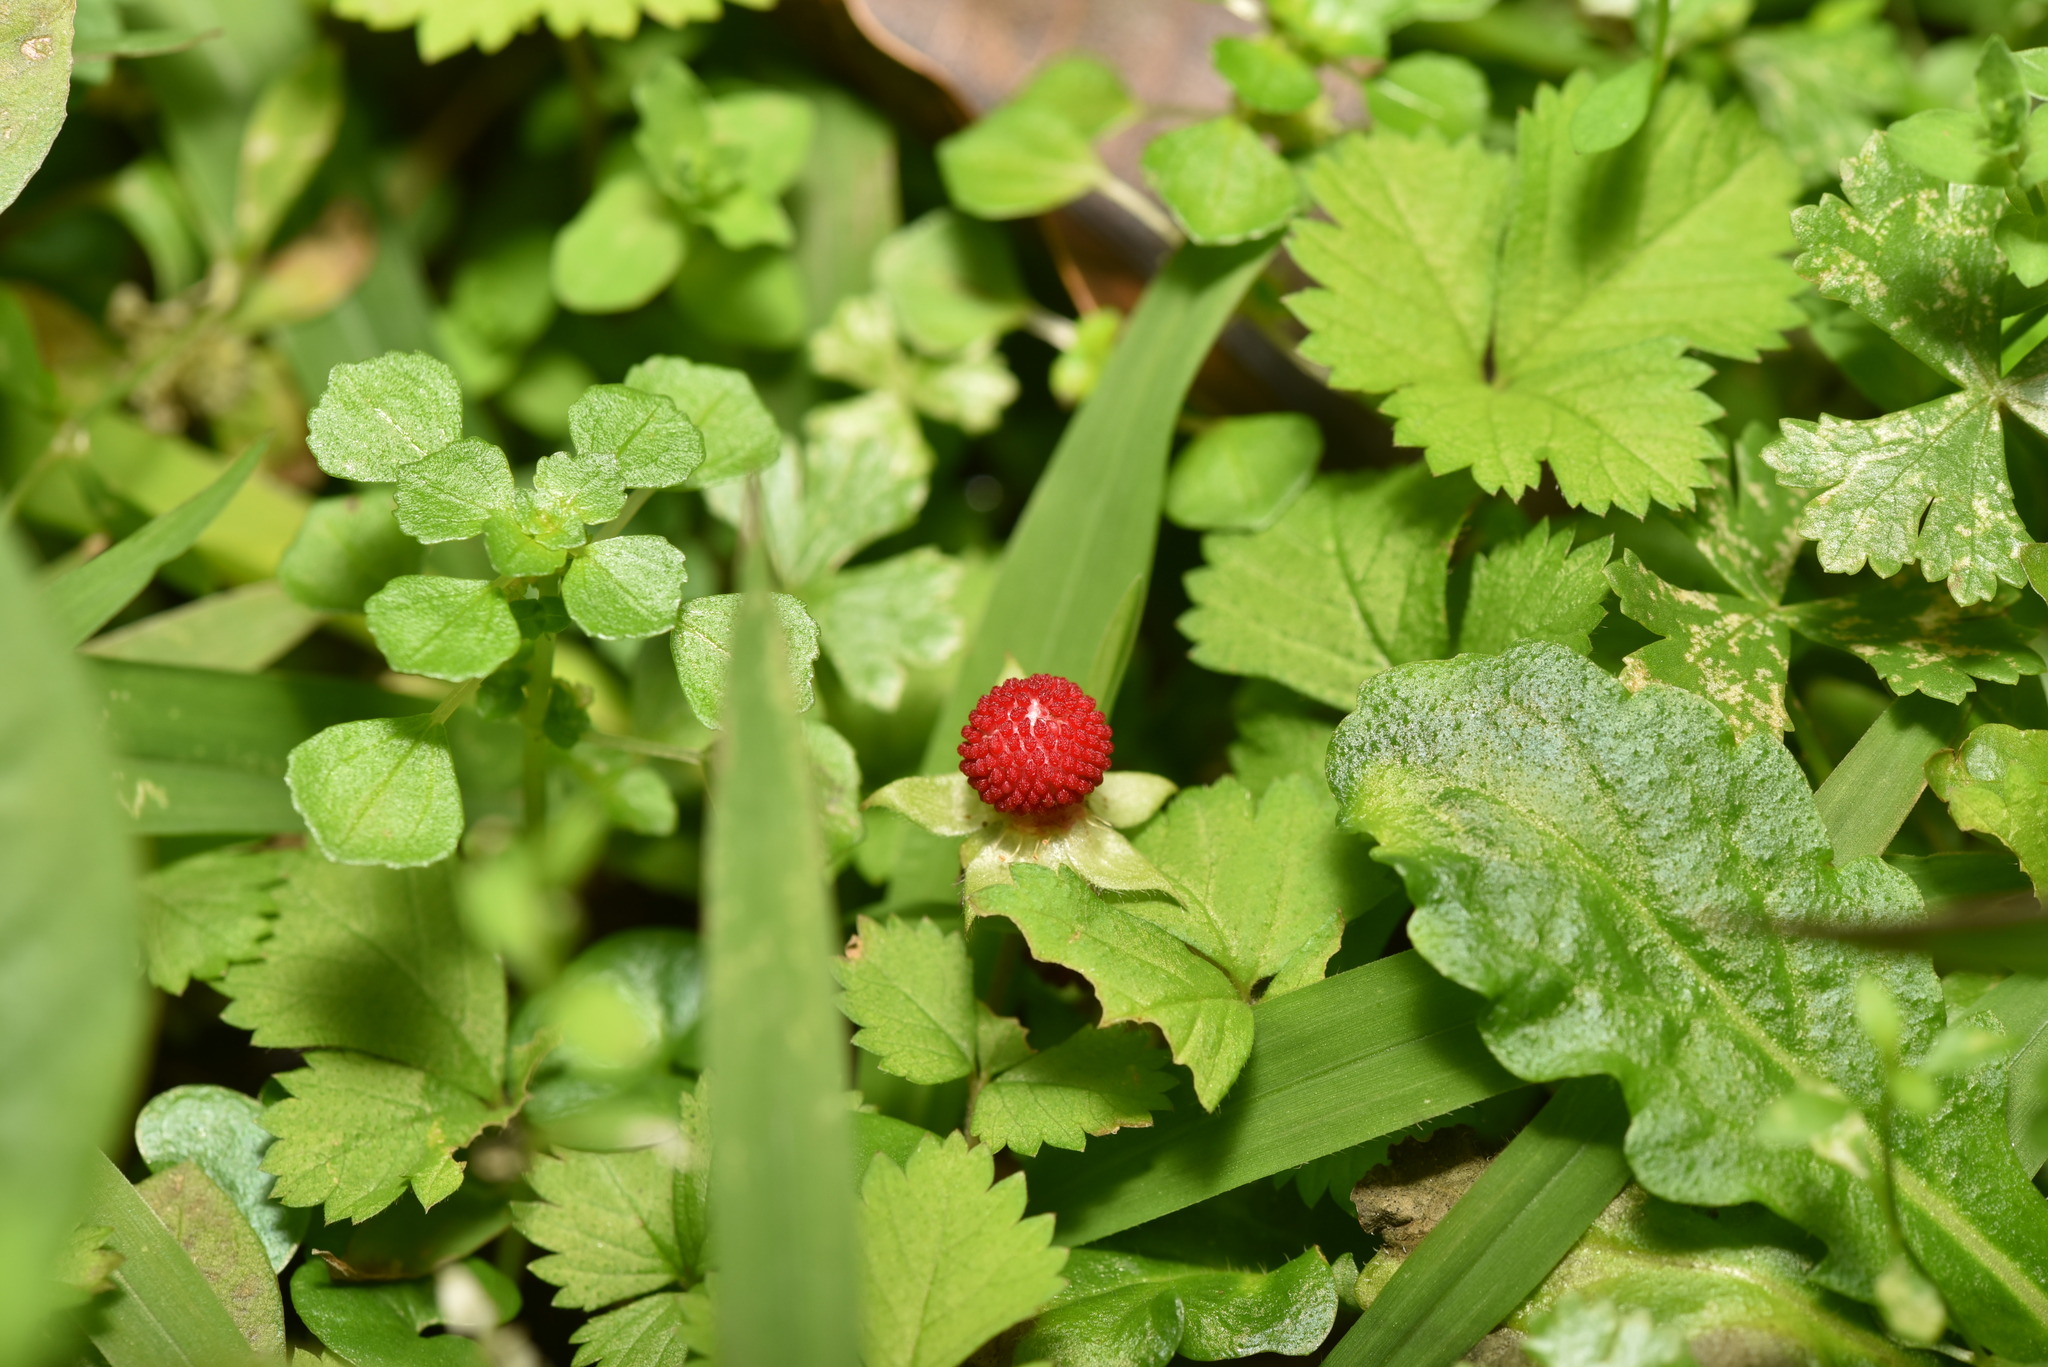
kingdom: Plantae
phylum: Tracheophyta
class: Magnoliopsida
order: Rosales
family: Rosaceae
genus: Potentilla
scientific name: Potentilla wallichiana
